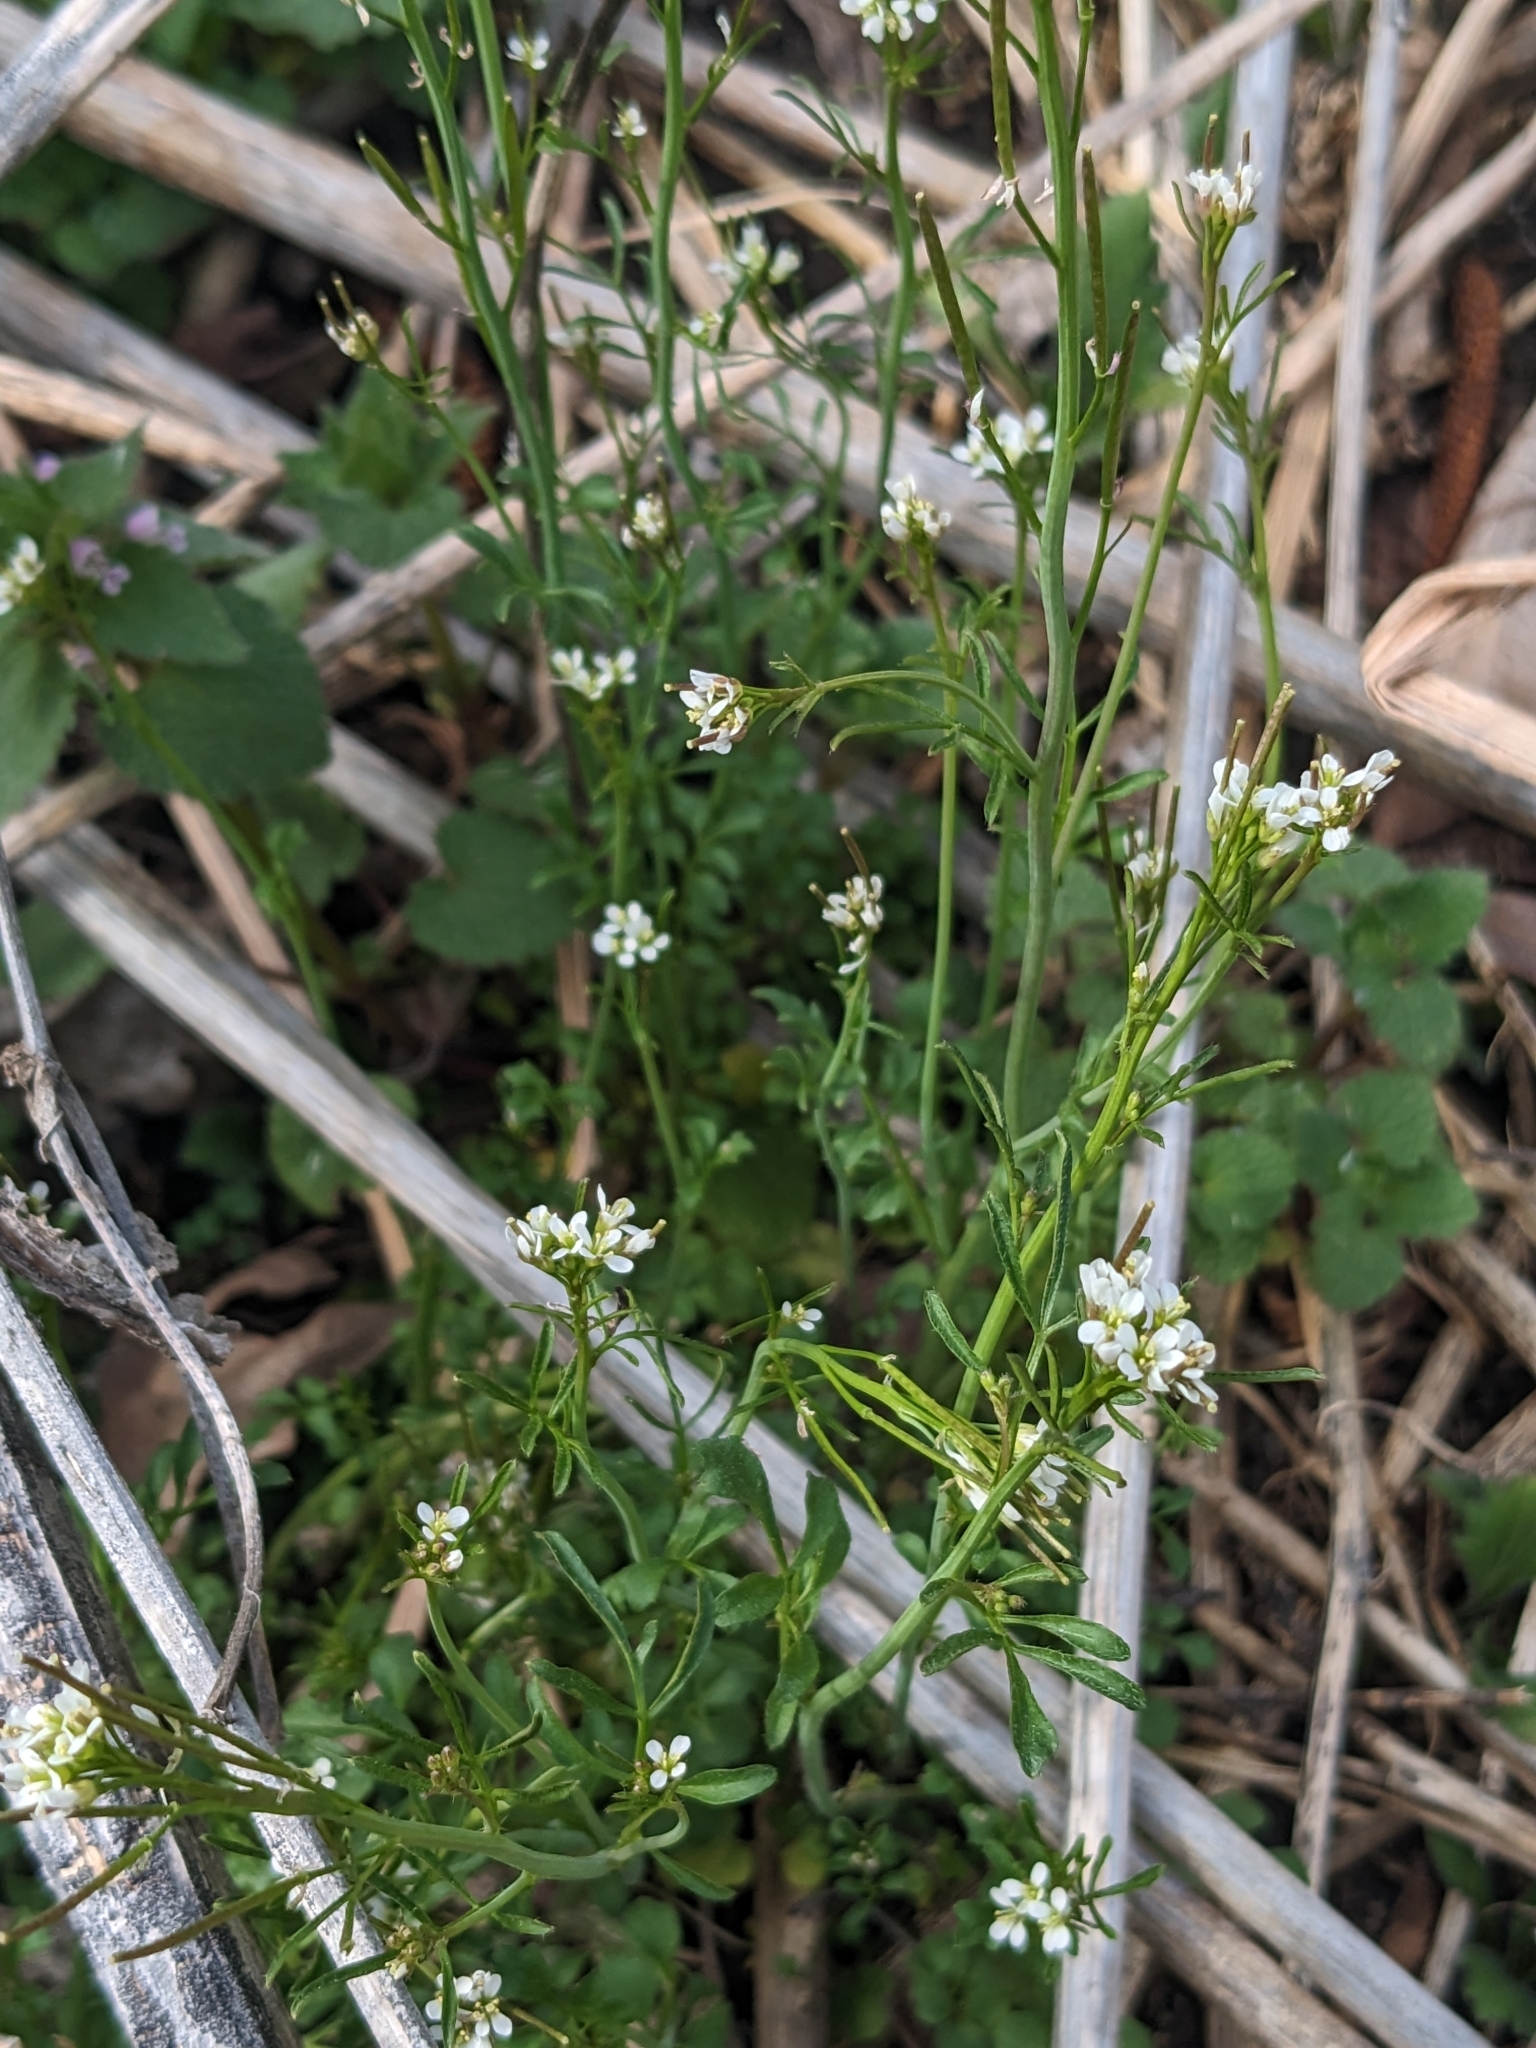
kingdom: Plantae
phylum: Tracheophyta
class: Magnoliopsida
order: Brassicales
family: Brassicaceae
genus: Cardamine
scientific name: Cardamine hirsuta
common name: Hairy bittercress
